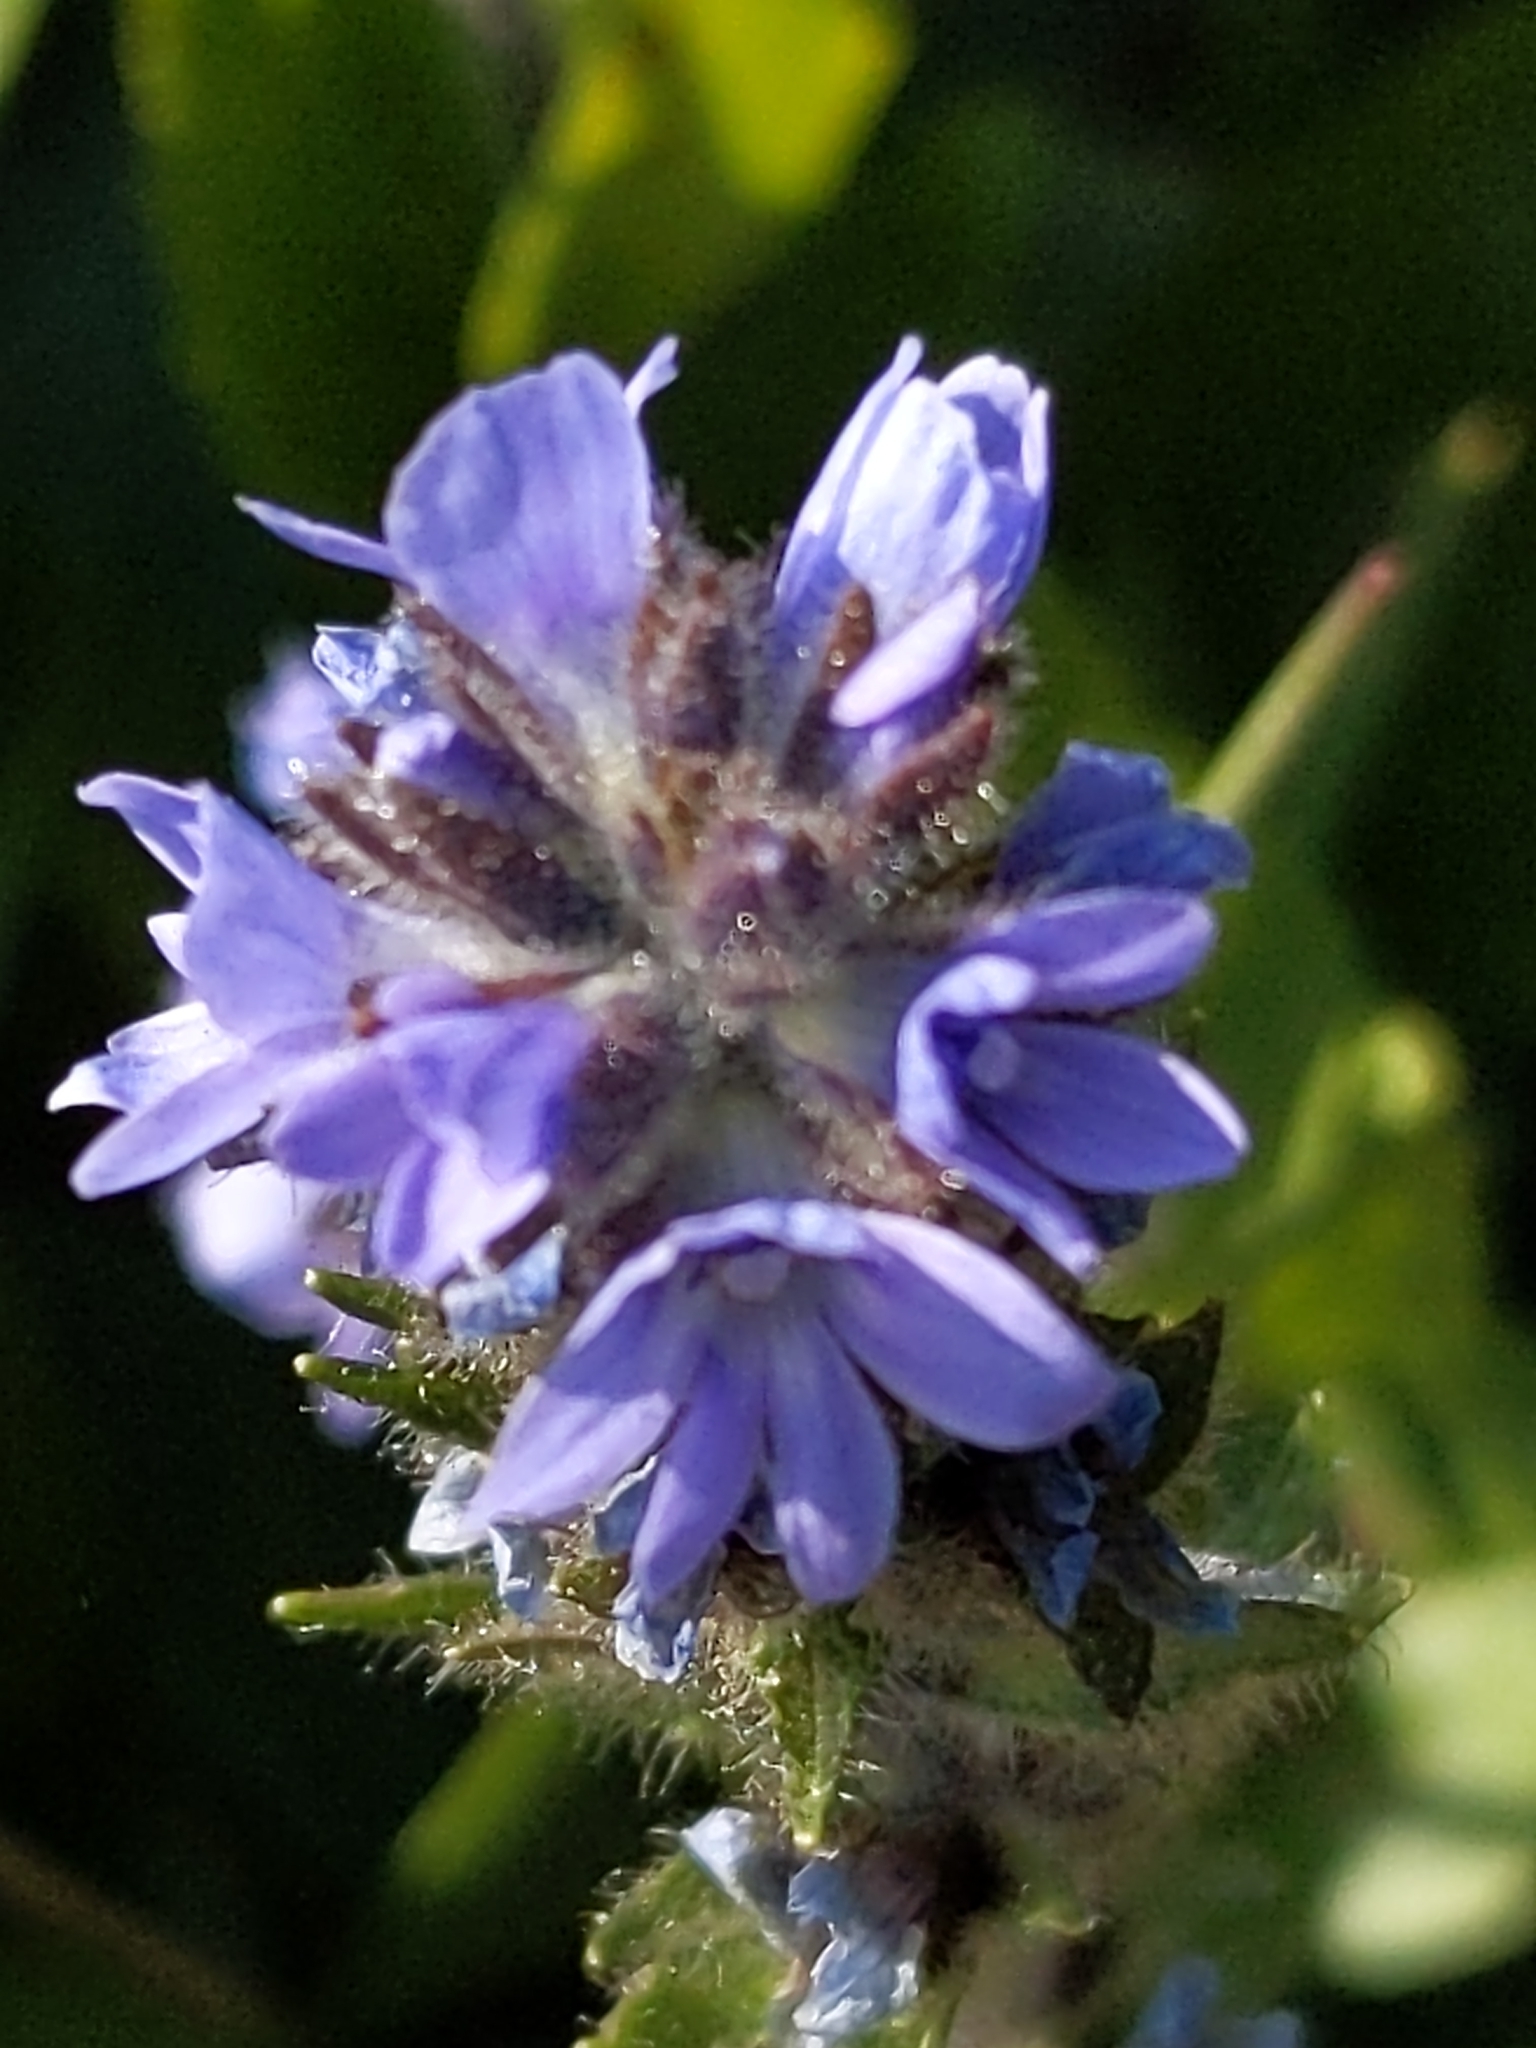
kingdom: Plantae
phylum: Tracheophyta
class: Magnoliopsida
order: Lamiales
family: Plantaginaceae
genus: Veronica
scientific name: Veronica wormskjoldii
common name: American alpine speedwell
